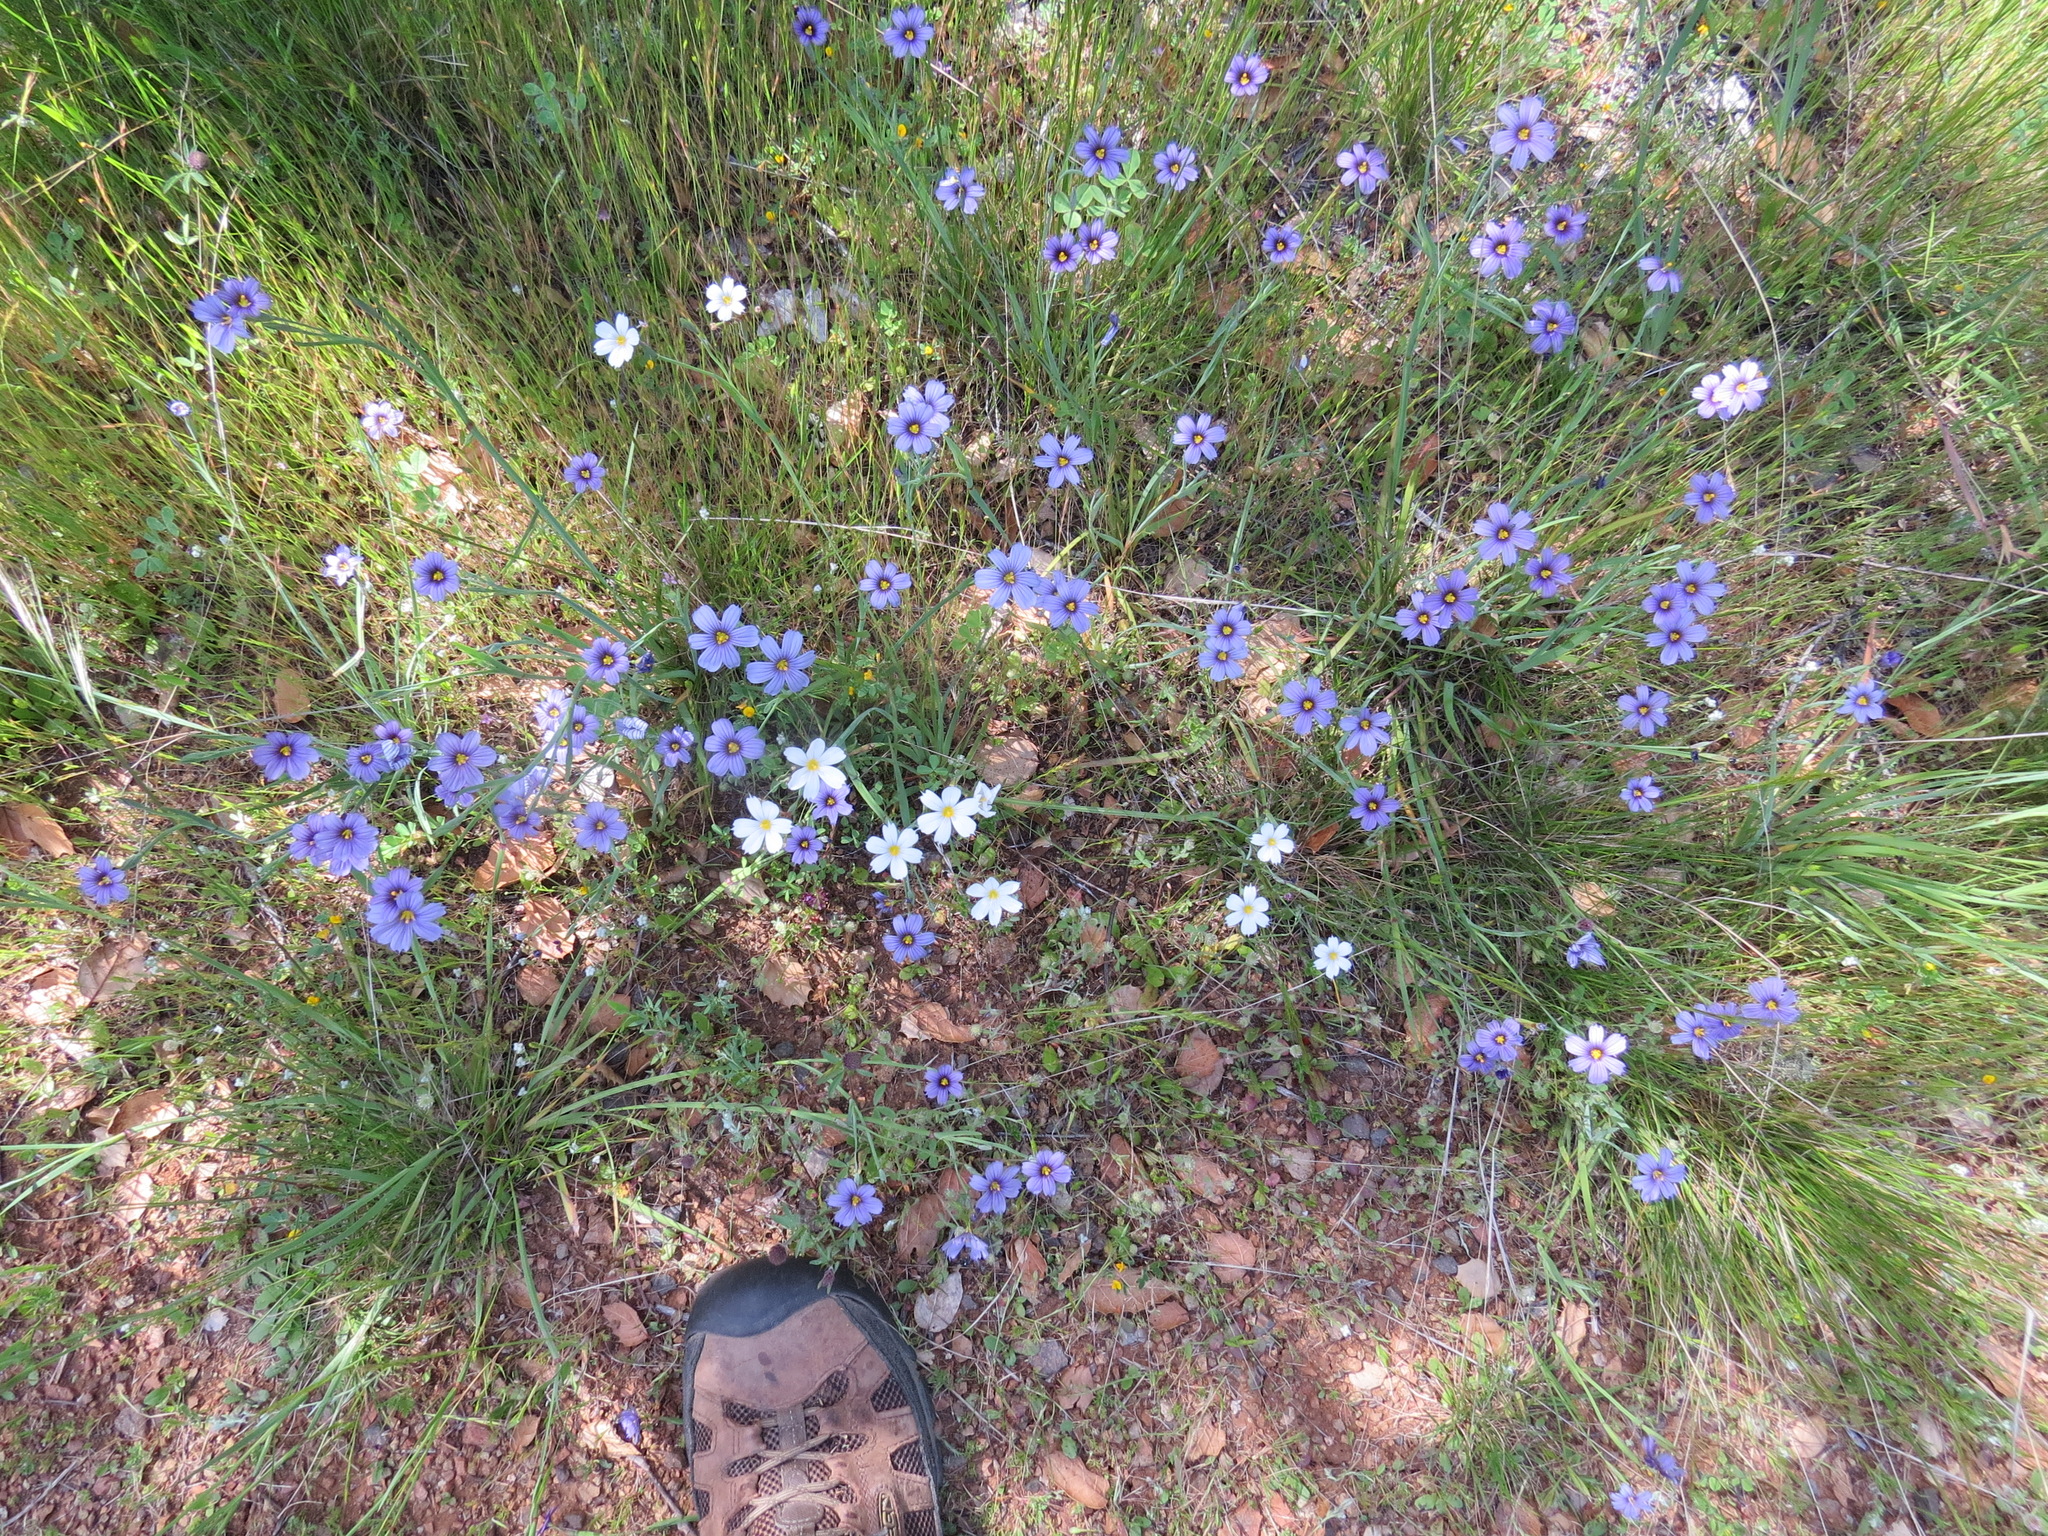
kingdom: Plantae
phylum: Tracheophyta
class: Liliopsida
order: Asparagales
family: Iridaceae
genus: Sisyrinchium
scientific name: Sisyrinchium bellum
